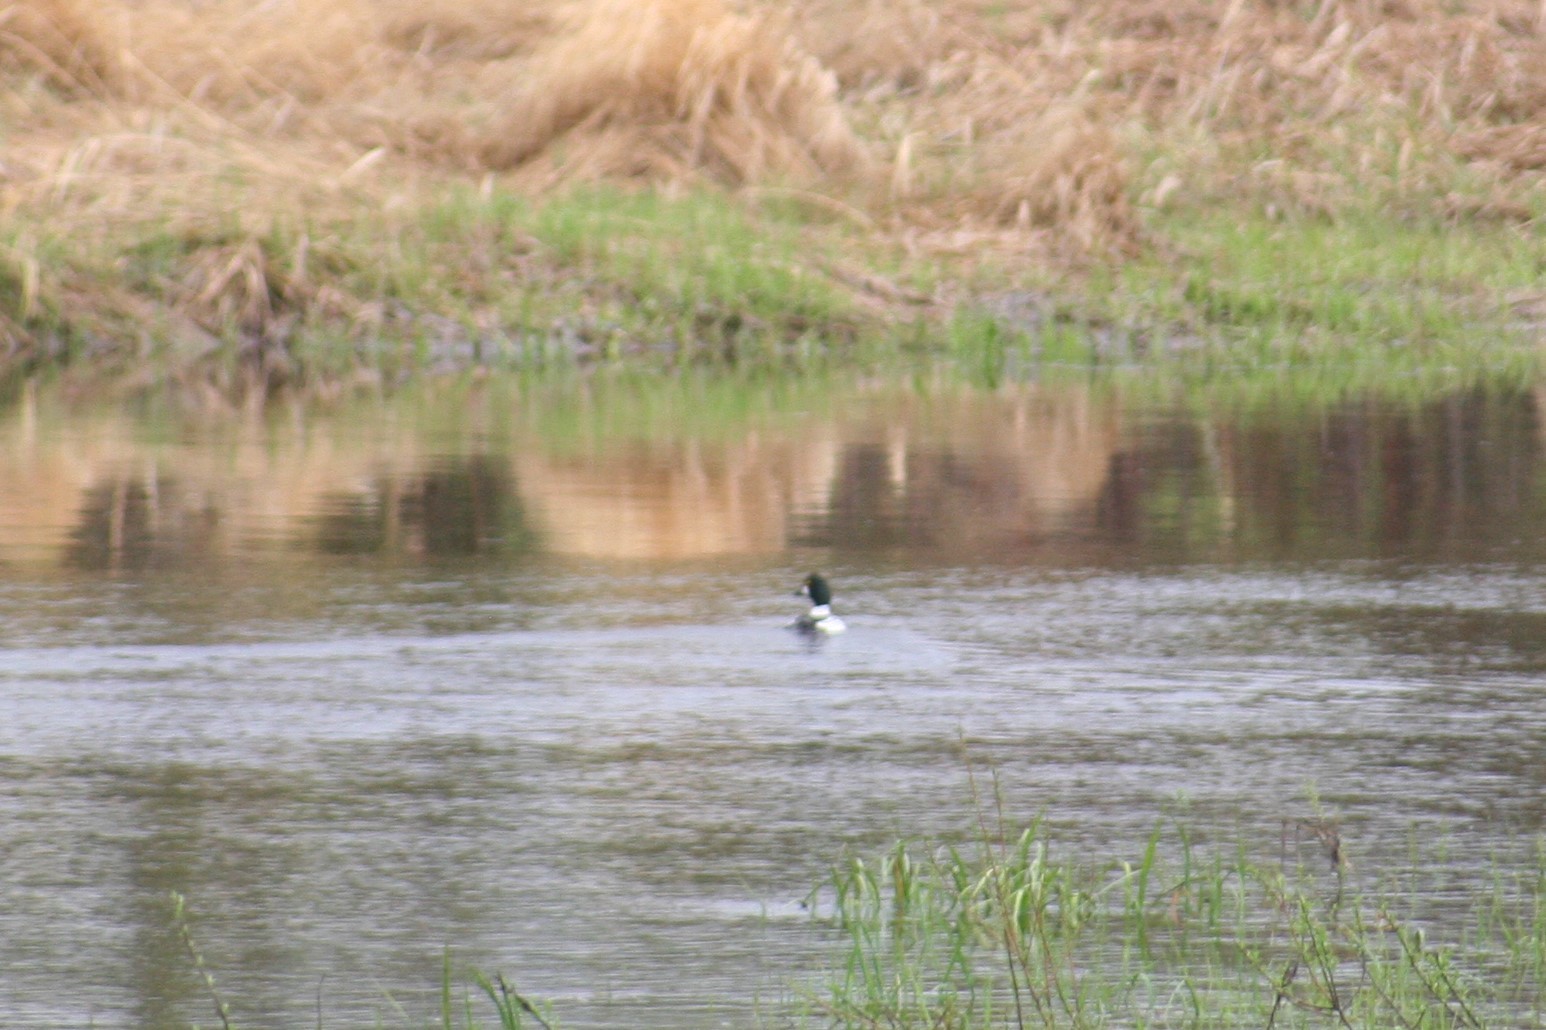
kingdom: Animalia
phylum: Chordata
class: Aves
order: Anseriformes
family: Anatidae
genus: Bucephala
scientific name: Bucephala clangula
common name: Common goldeneye
